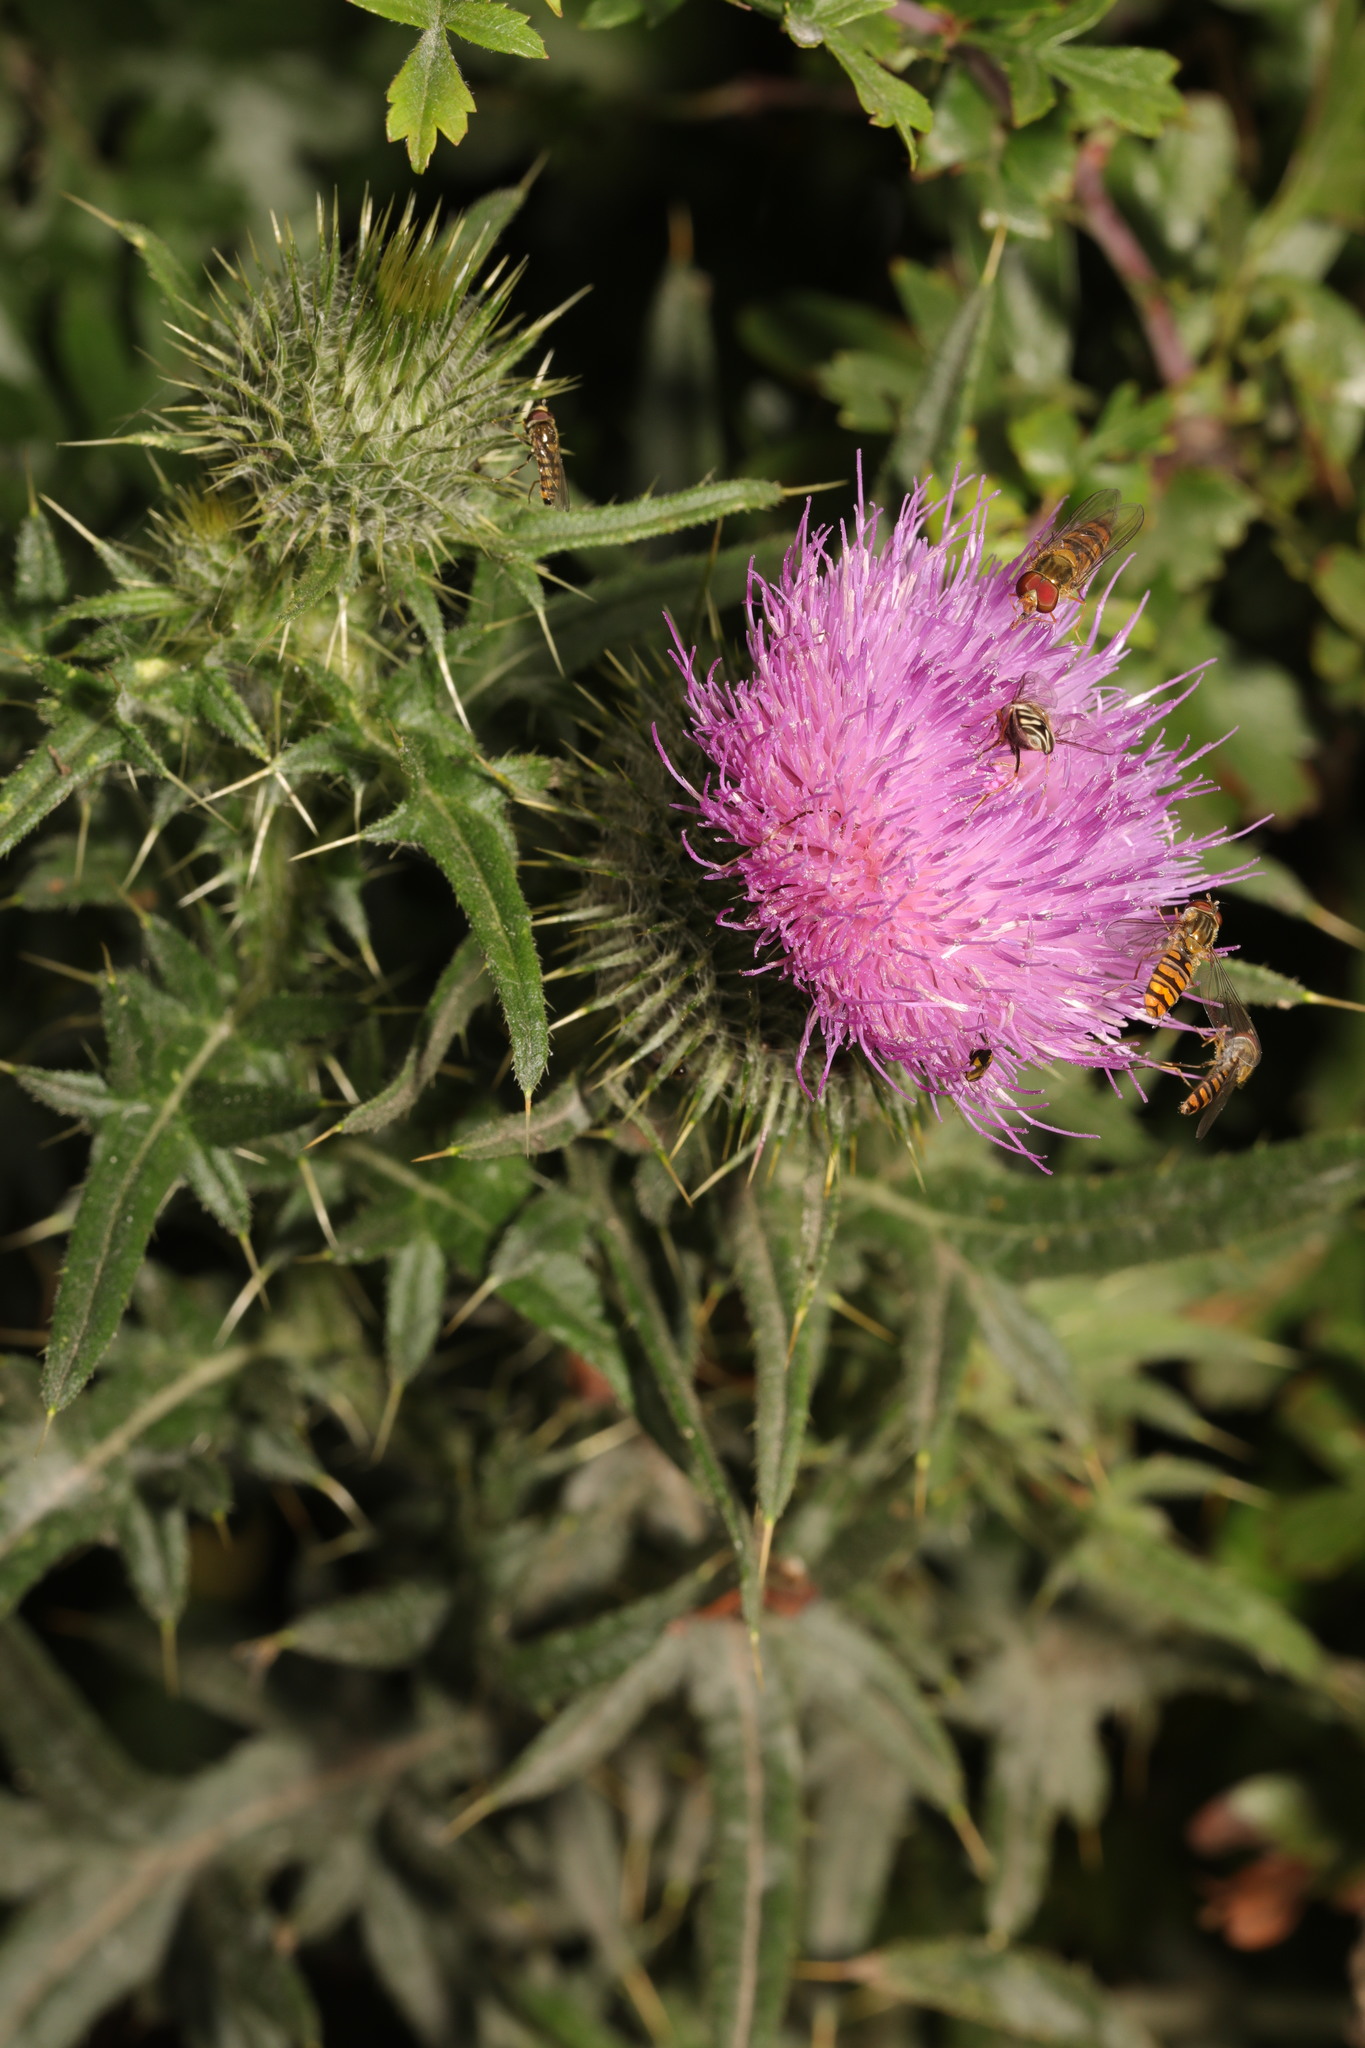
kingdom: Plantae
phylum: Tracheophyta
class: Magnoliopsida
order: Asterales
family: Asteraceae
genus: Cirsium
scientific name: Cirsium vulgare
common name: Bull thistle
